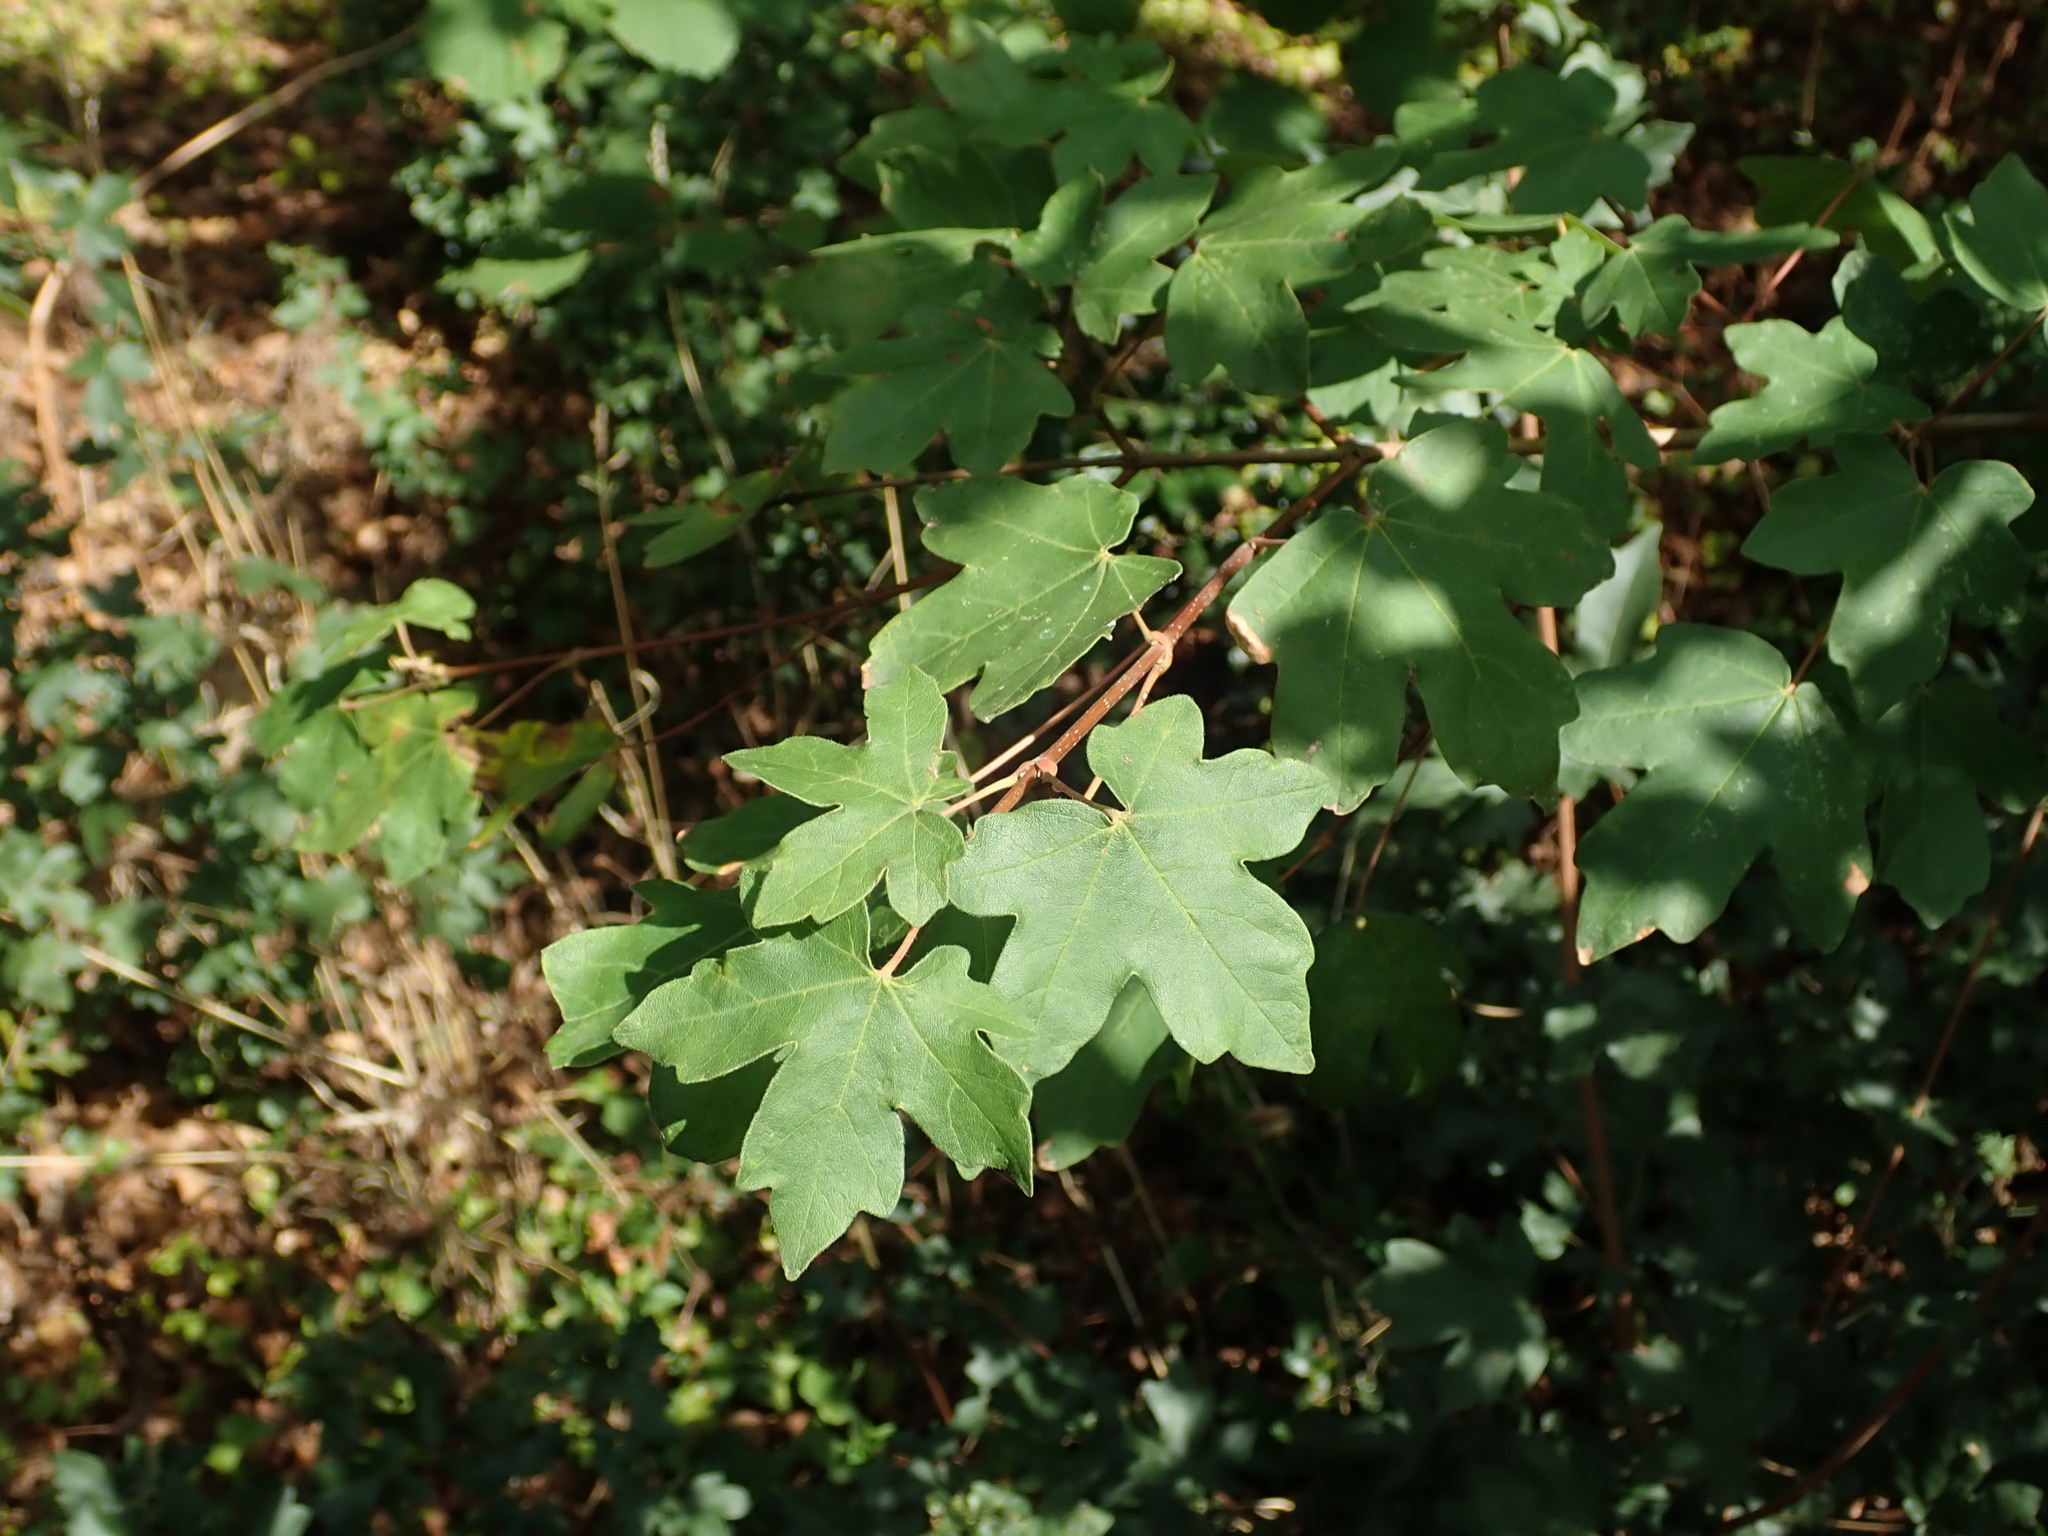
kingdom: Plantae
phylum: Tracheophyta
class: Magnoliopsida
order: Sapindales
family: Sapindaceae
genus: Acer
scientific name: Acer campestre
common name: Field maple
